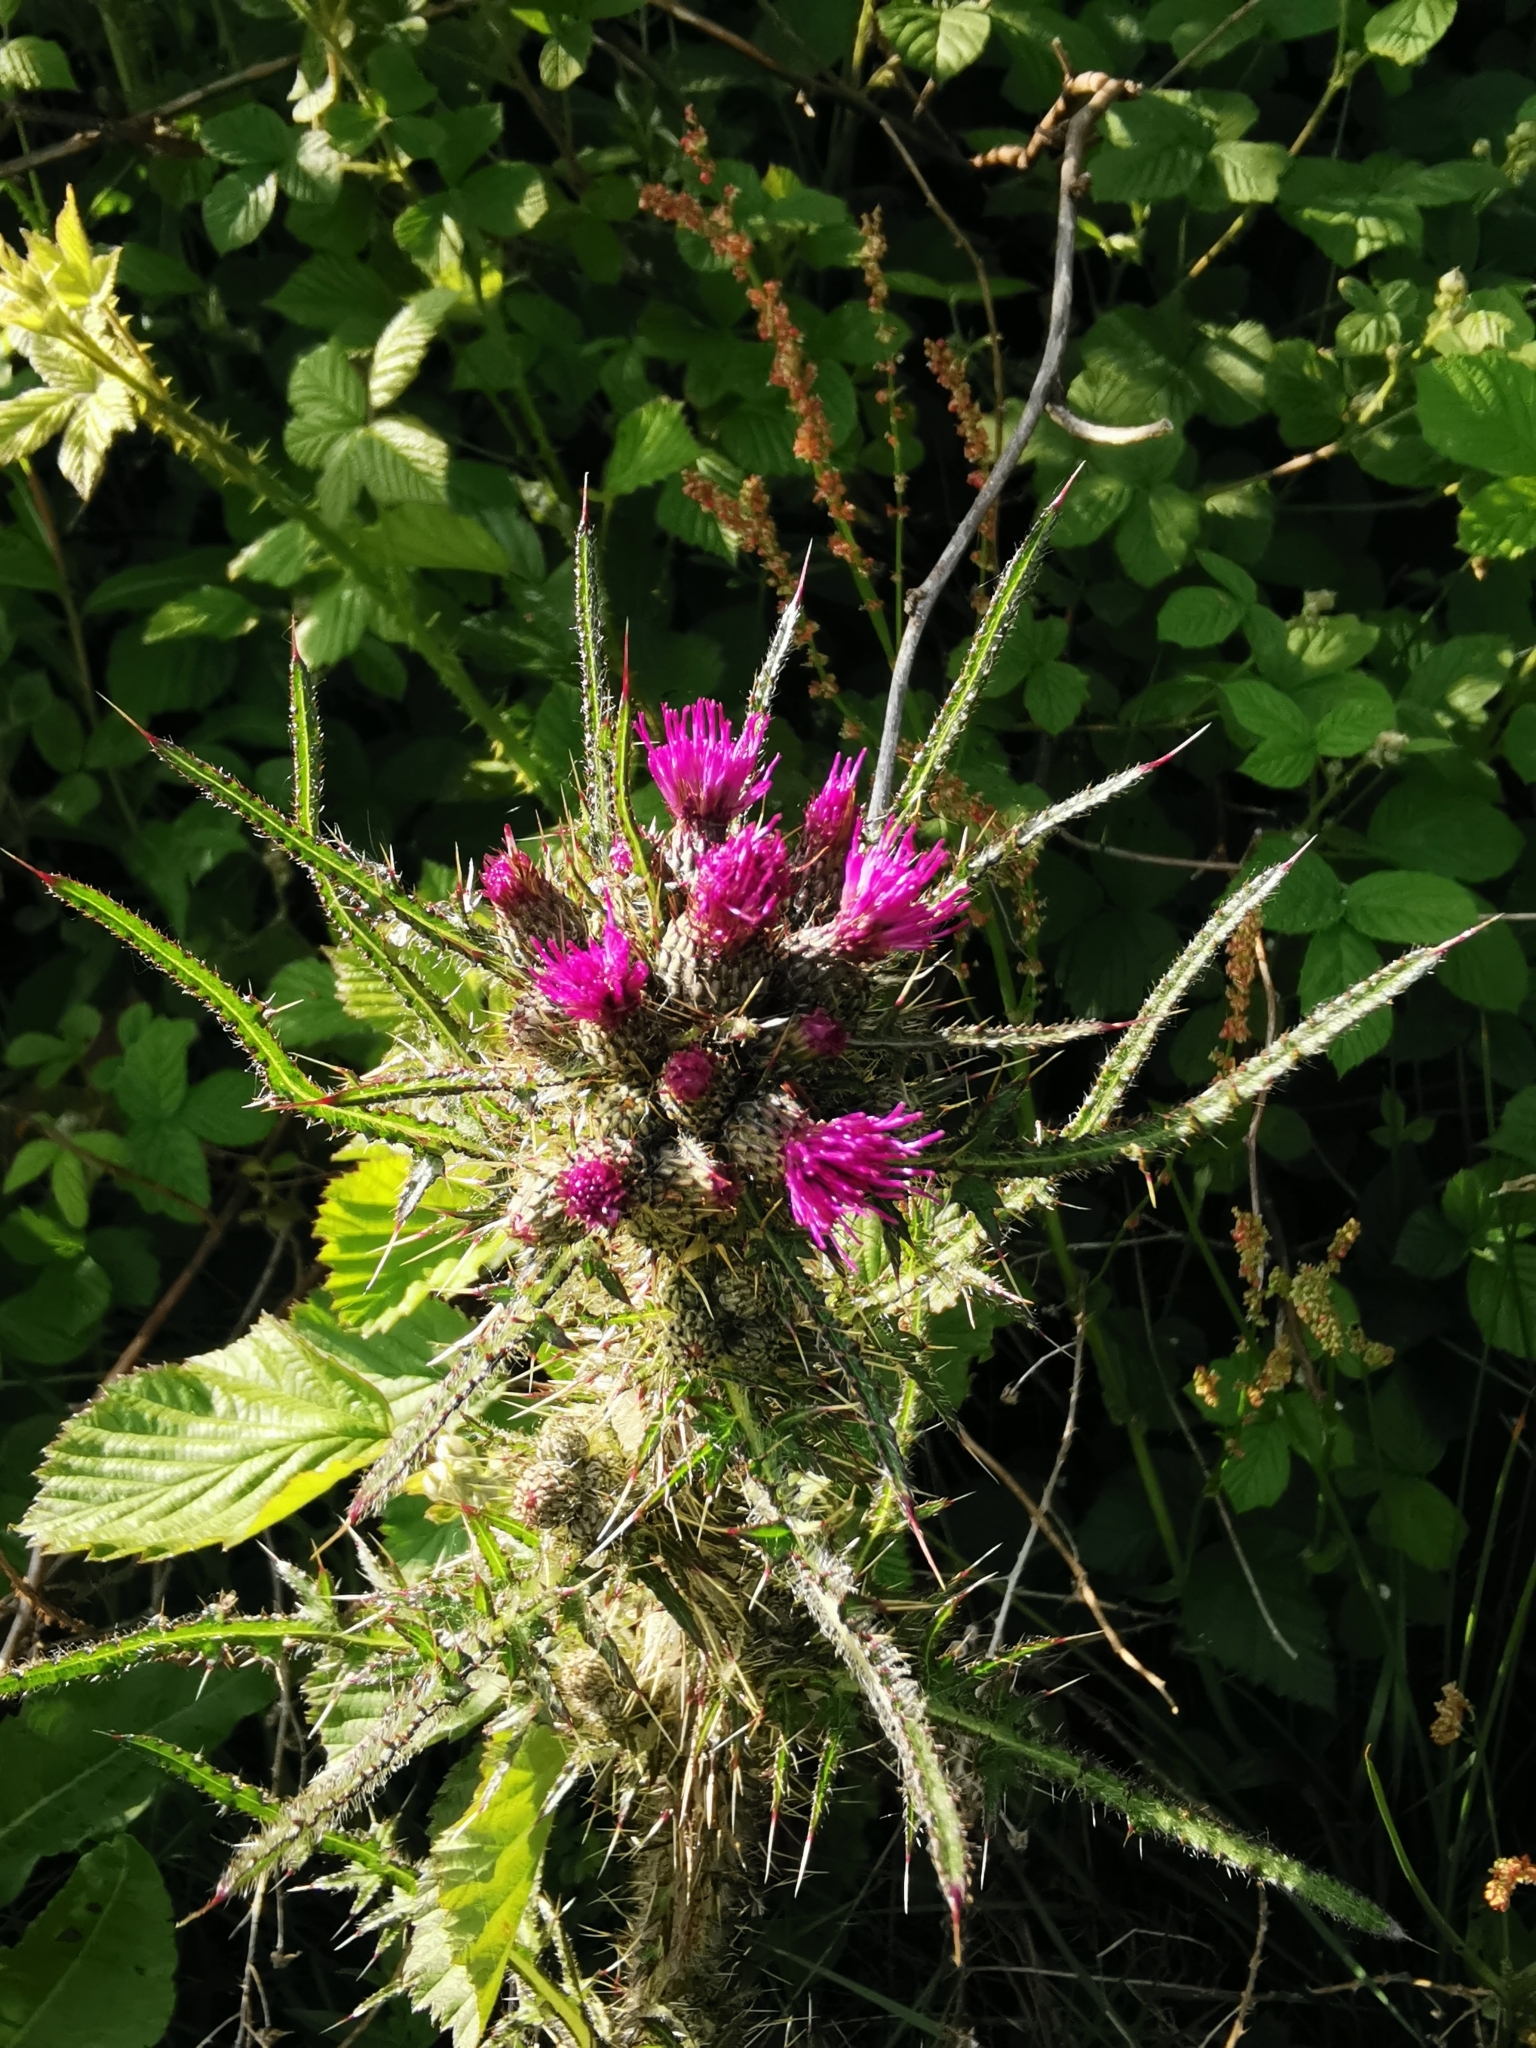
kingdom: Plantae
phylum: Tracheophyta
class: Magnoliopsida
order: Asterales
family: Asteraceae
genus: Cirsium
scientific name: Cirsium palustre
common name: Marsh thistle
